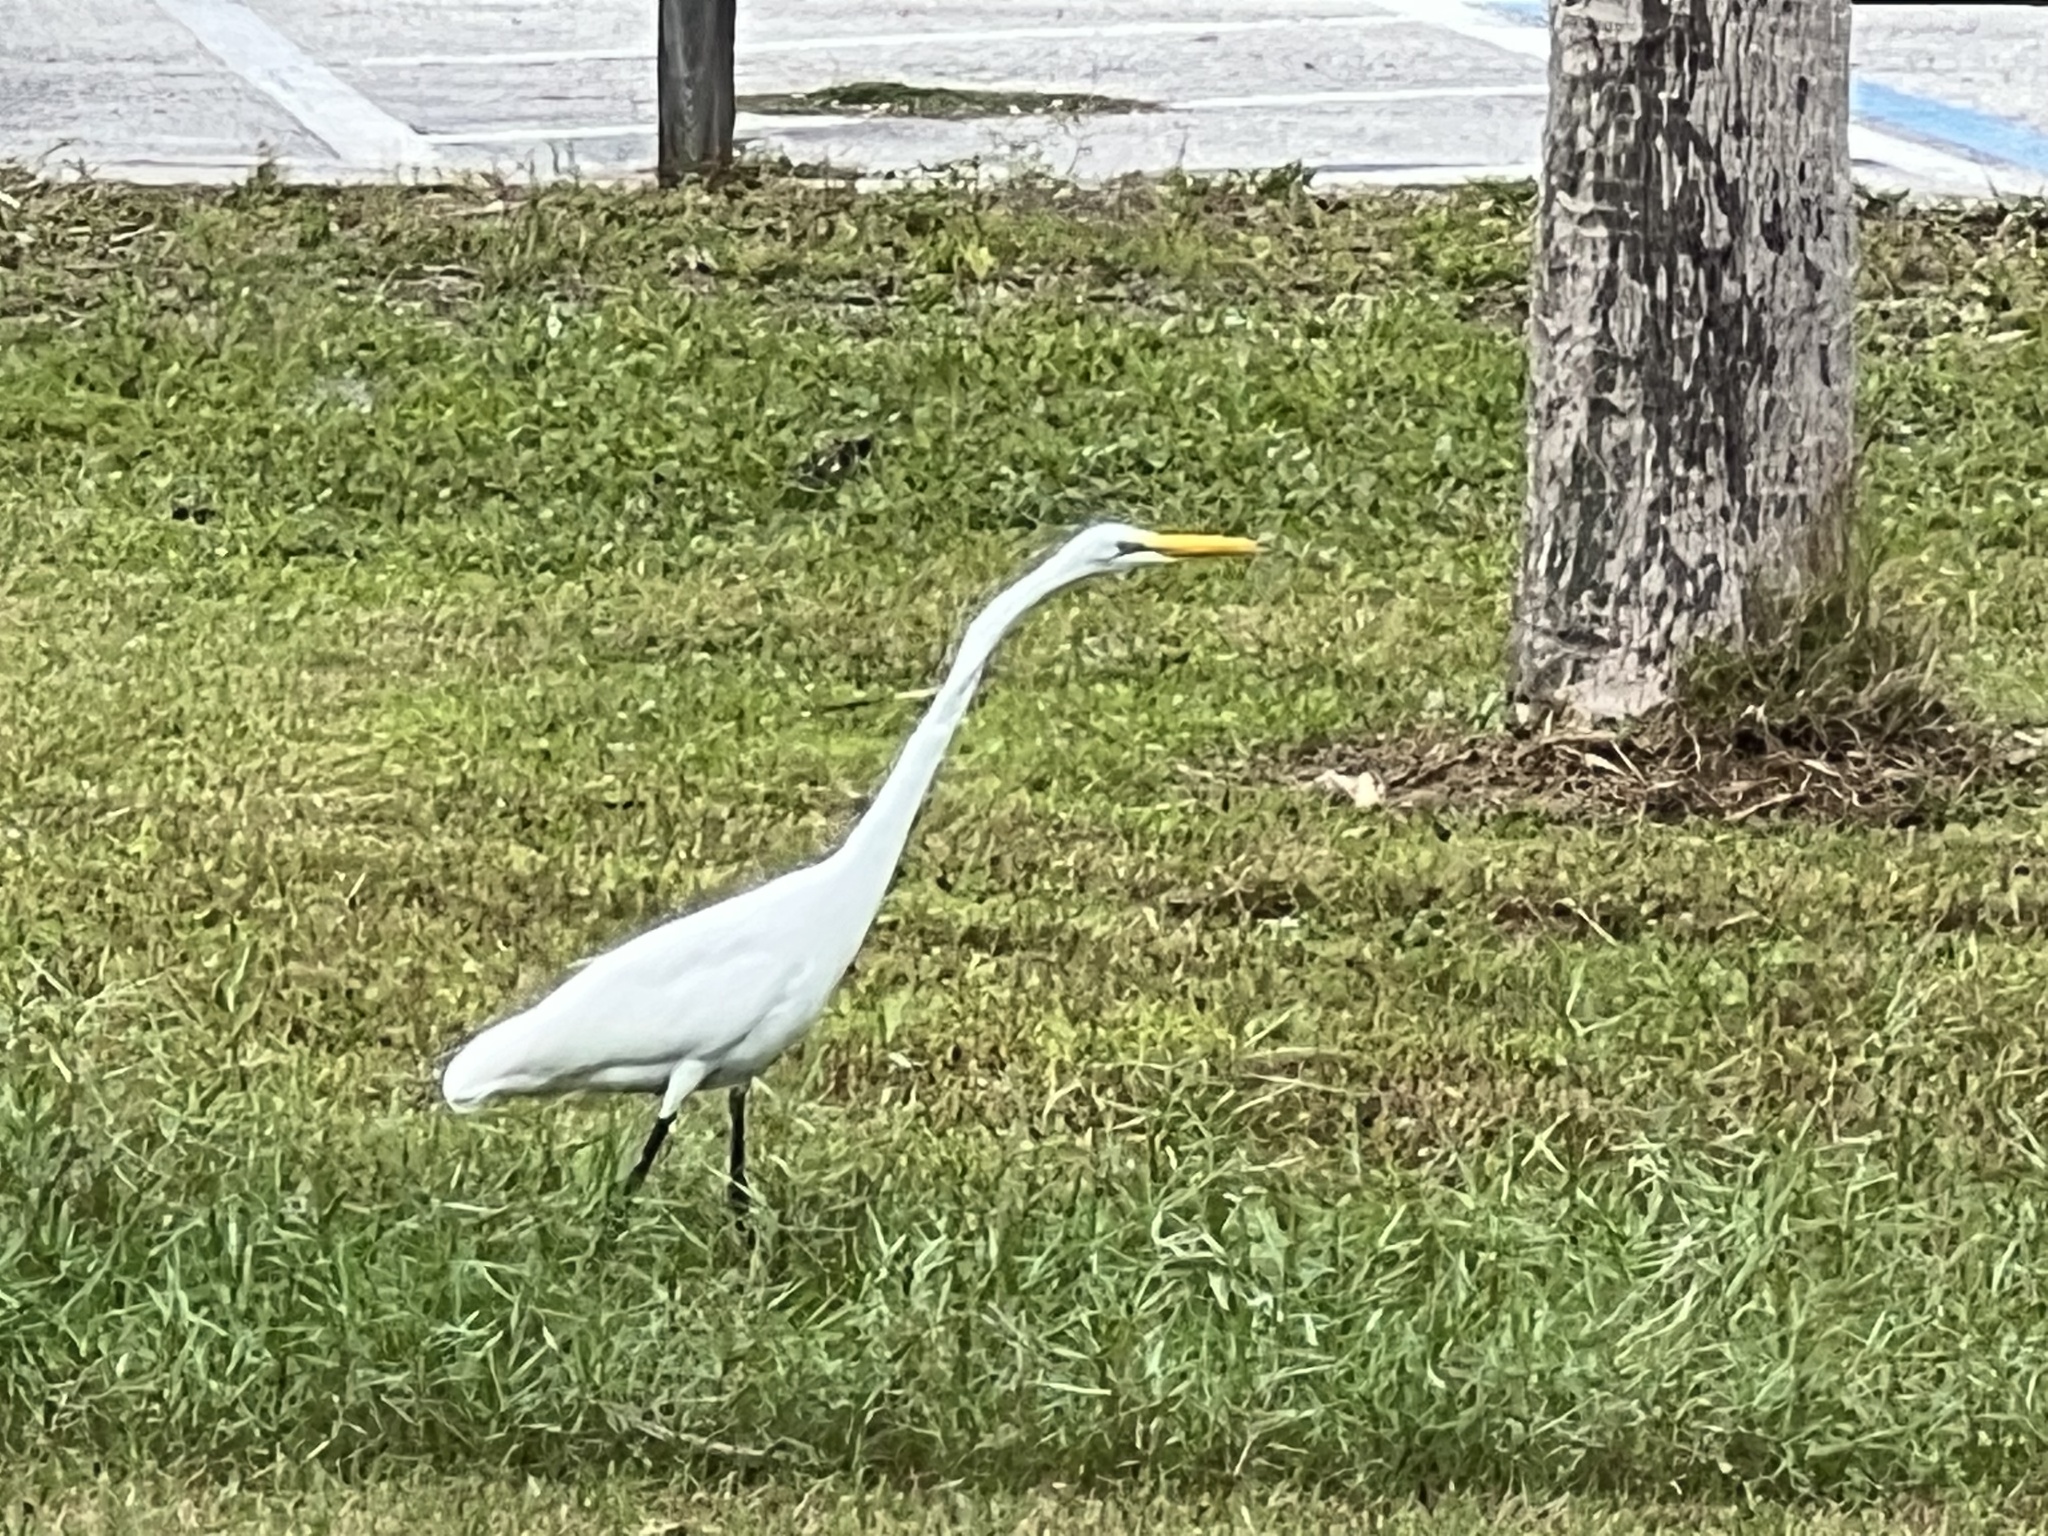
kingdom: Animalia
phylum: Chordata
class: Aves
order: Pelecaniformes
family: Ardeidae
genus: Ardea
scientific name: Ardea alba
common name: Great egret
